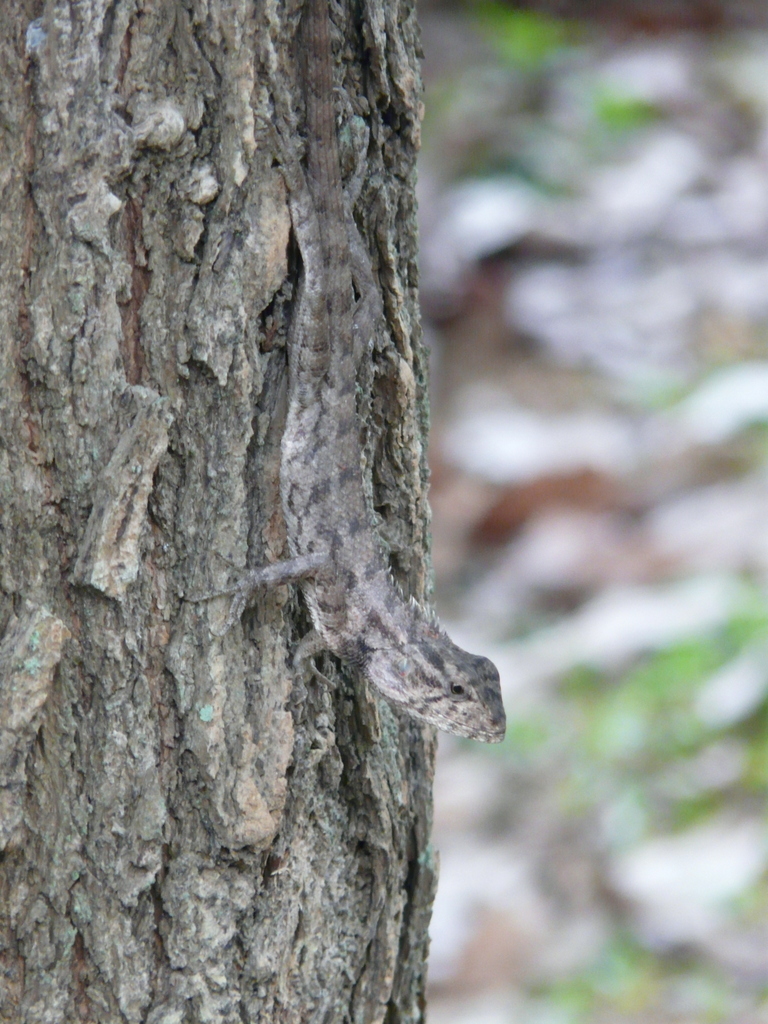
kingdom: Animalia
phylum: Chordata
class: Squamata
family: Agamidae
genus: Calotes
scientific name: Calotes versicolor
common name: Oriental garden lizard
